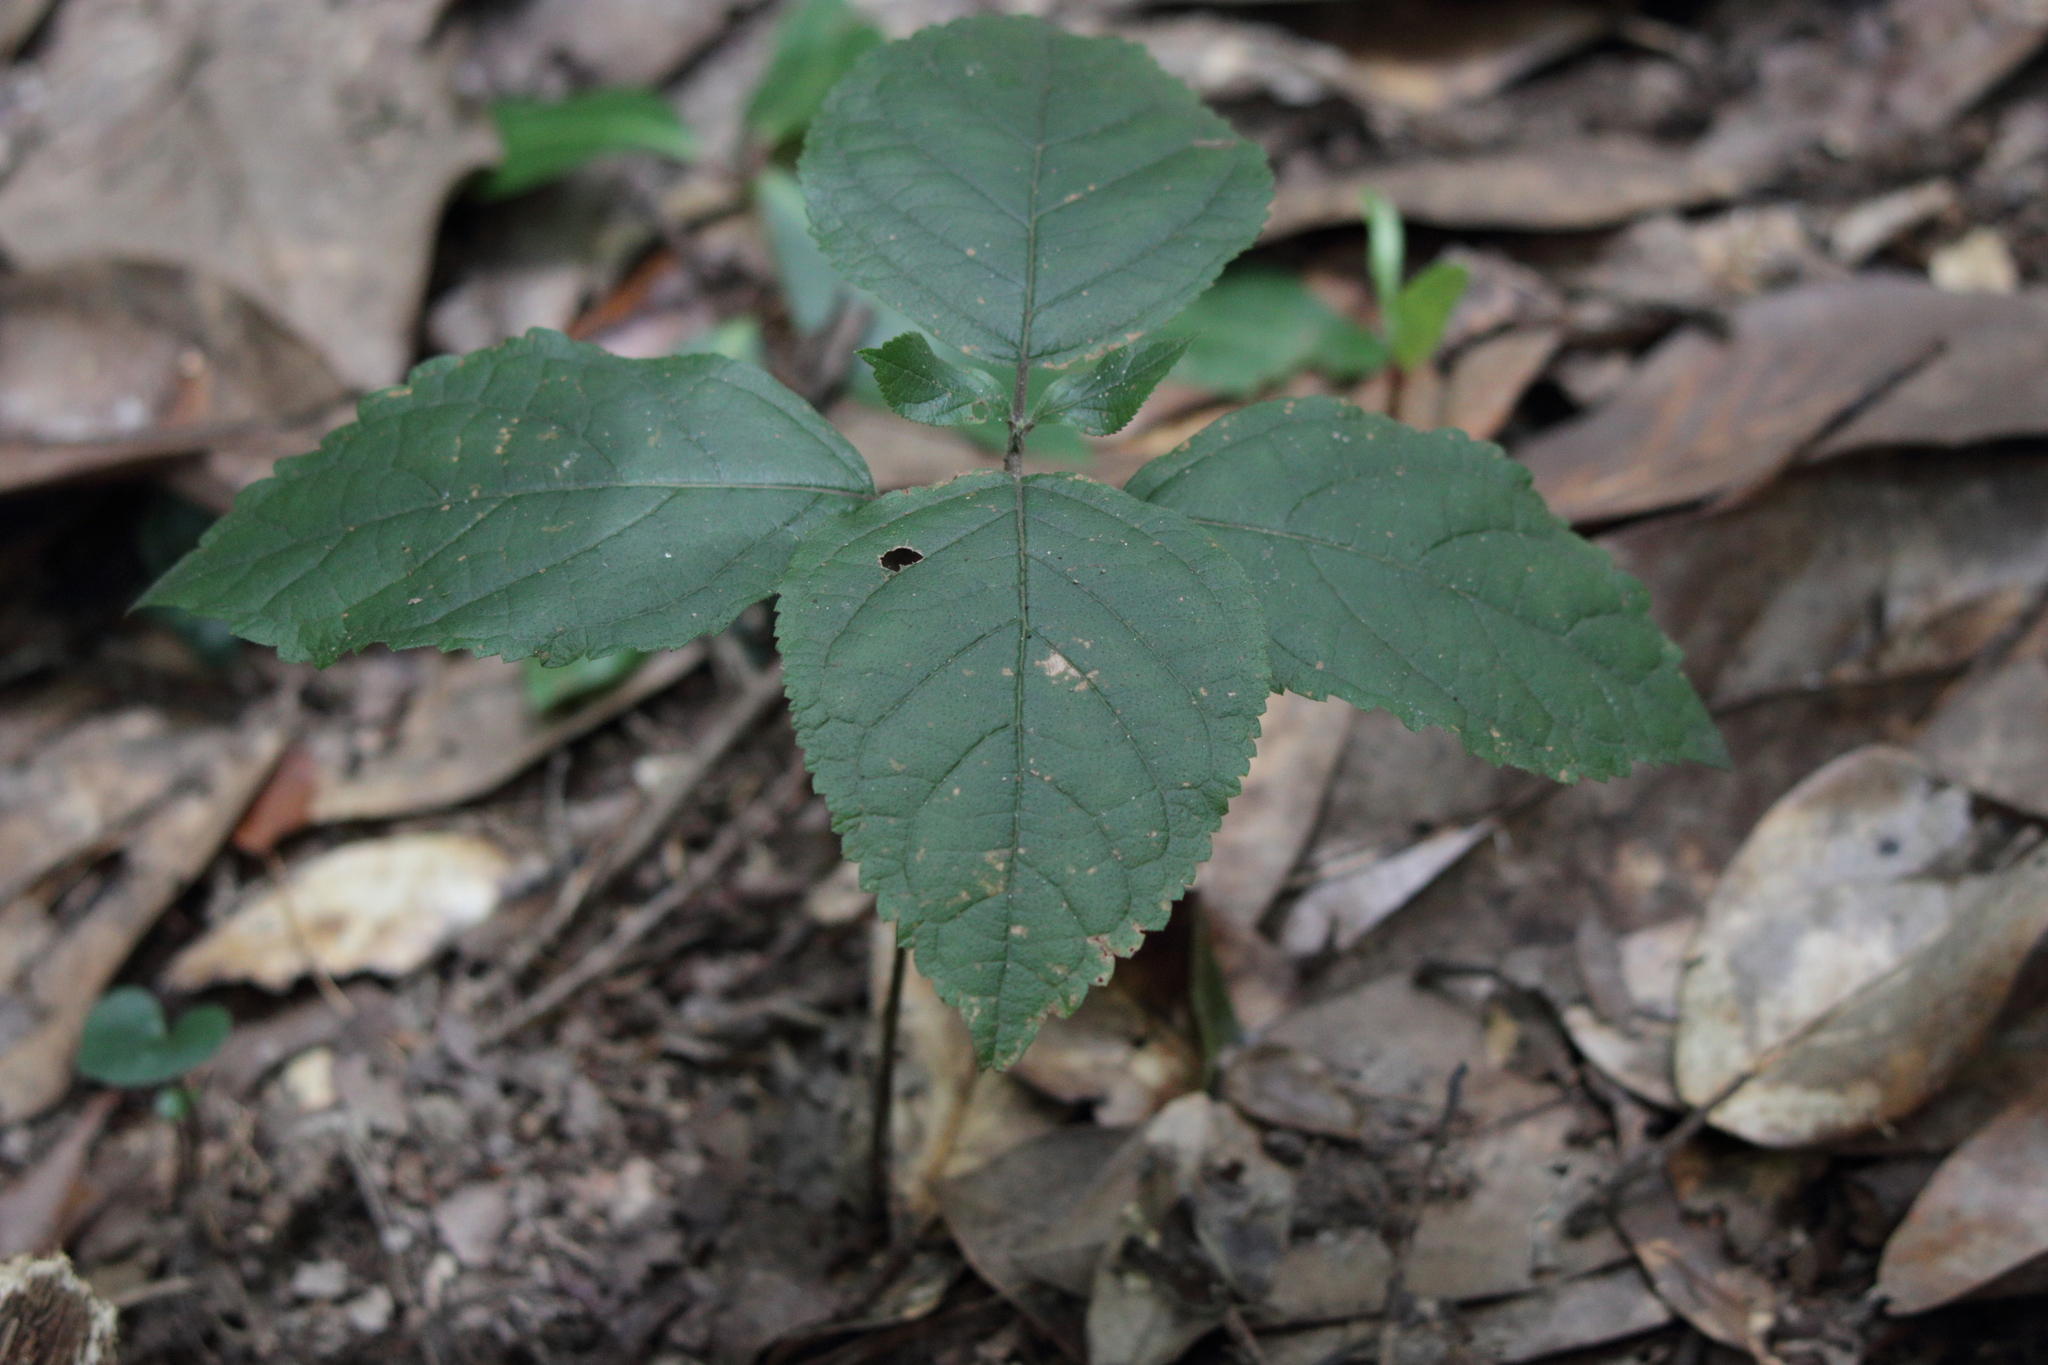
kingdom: Plantae
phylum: Tracheophyta
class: Magnoliopsida
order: Lamiales
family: Lamiaceae
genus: Collinsonia
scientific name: Collinsonia canadensis
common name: Northern horsebalm
